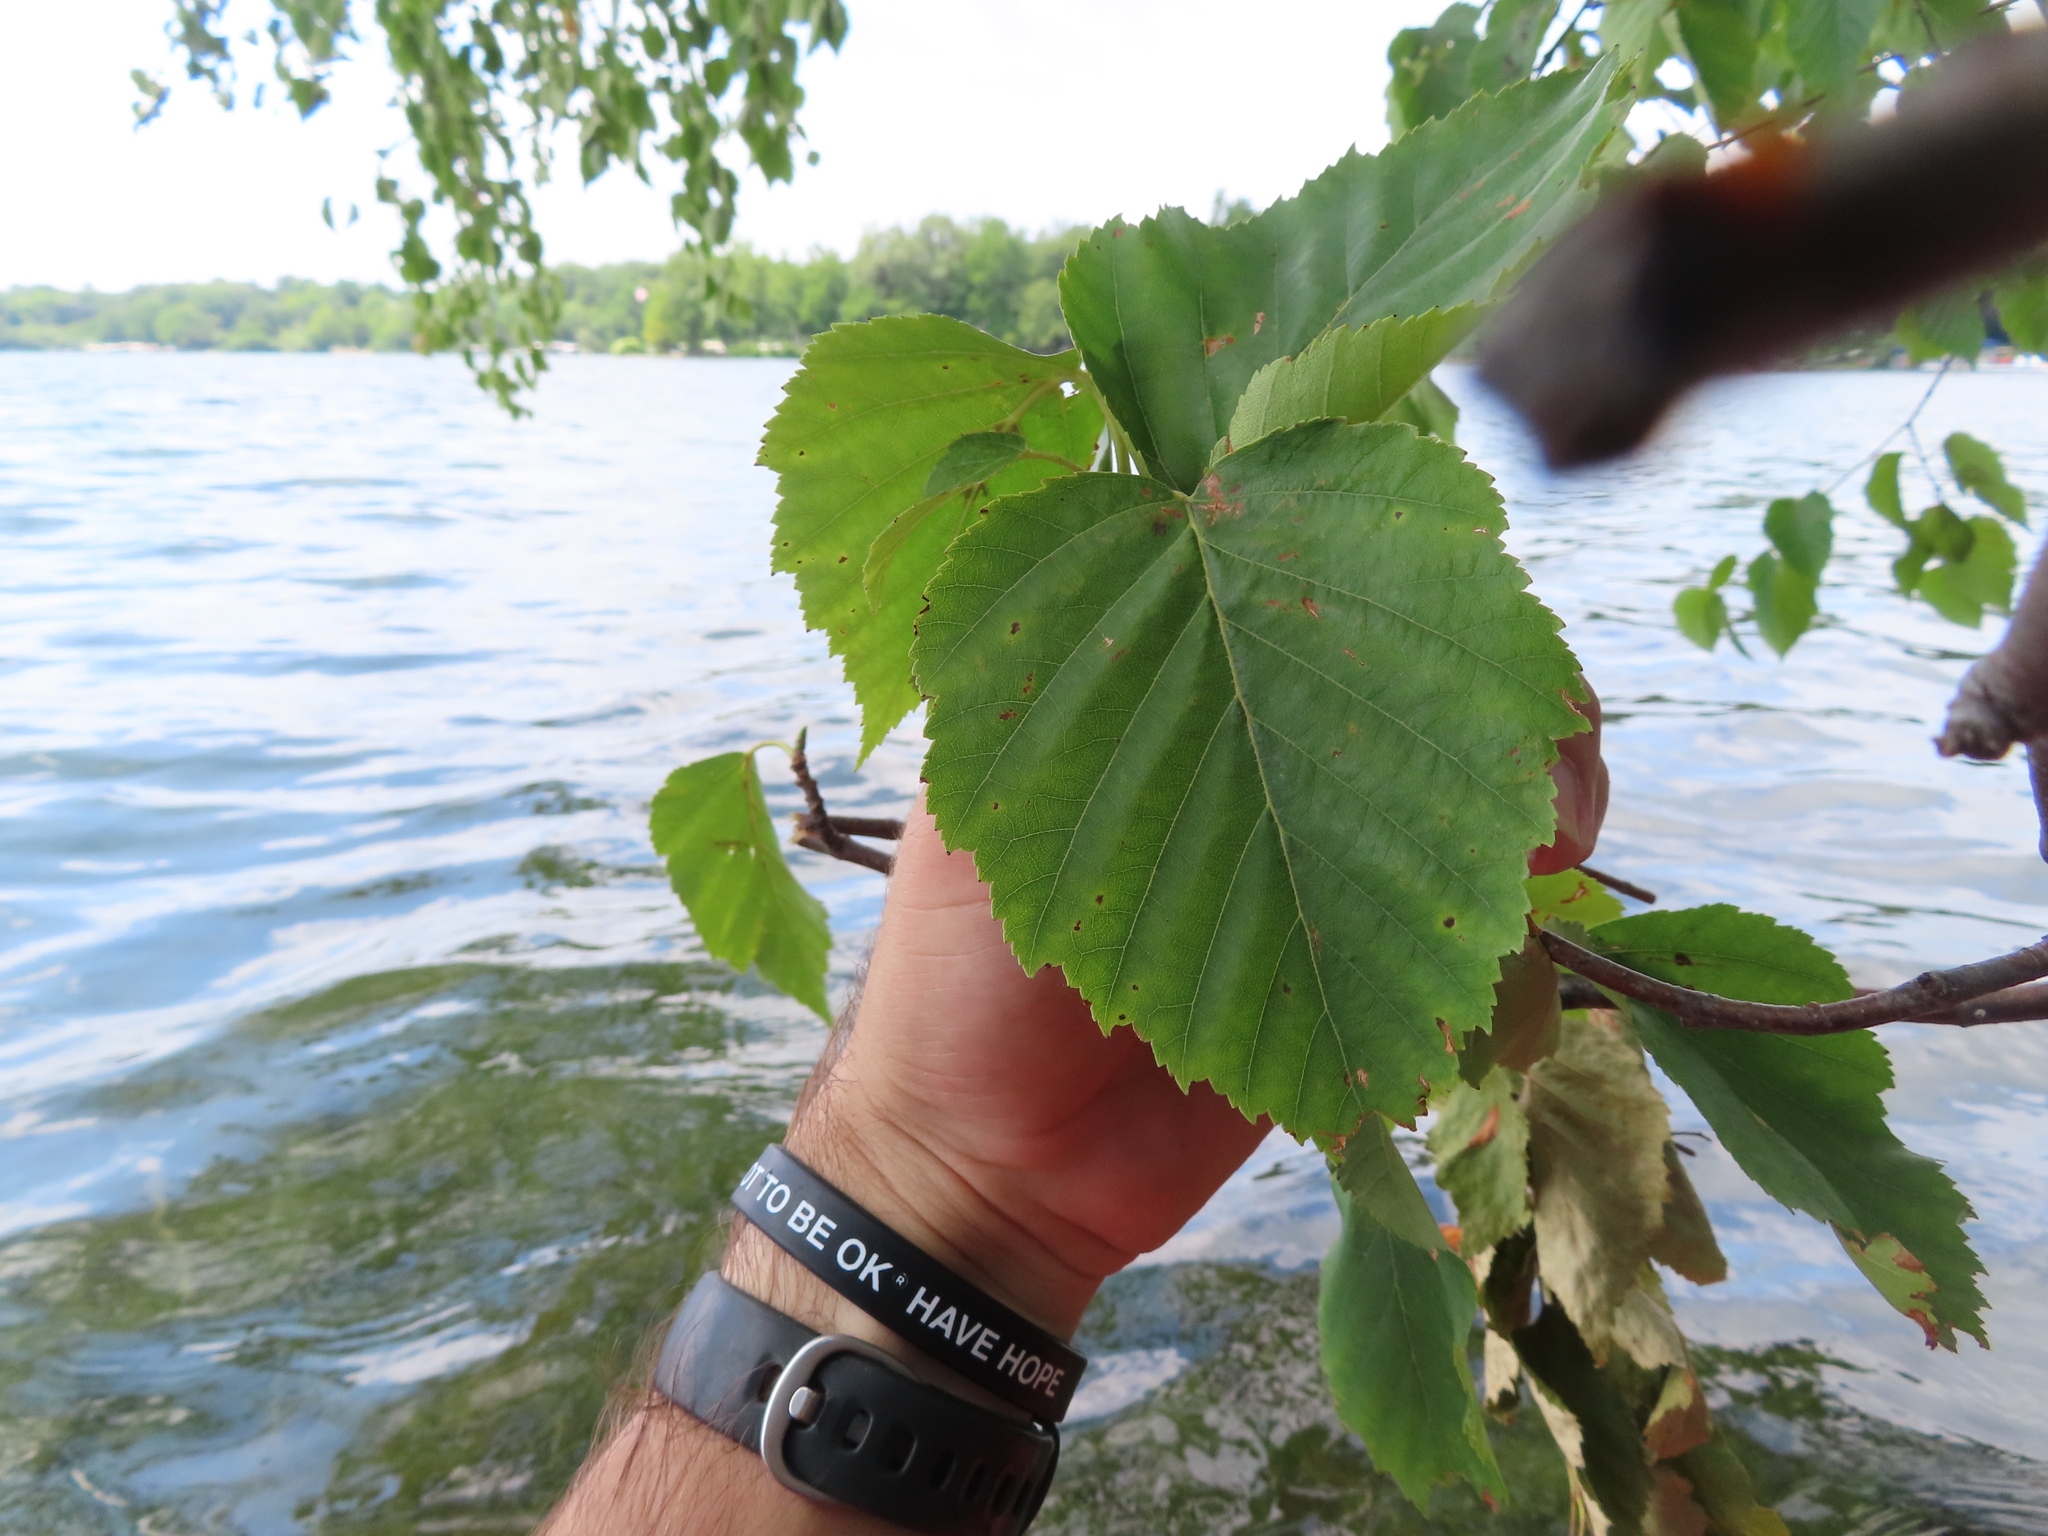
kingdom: Plantae
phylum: Tracheophyta
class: Magnoliopsida
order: Fagales
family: Betulaceae
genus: Betula
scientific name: Betula papyrifera
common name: Paper birch
